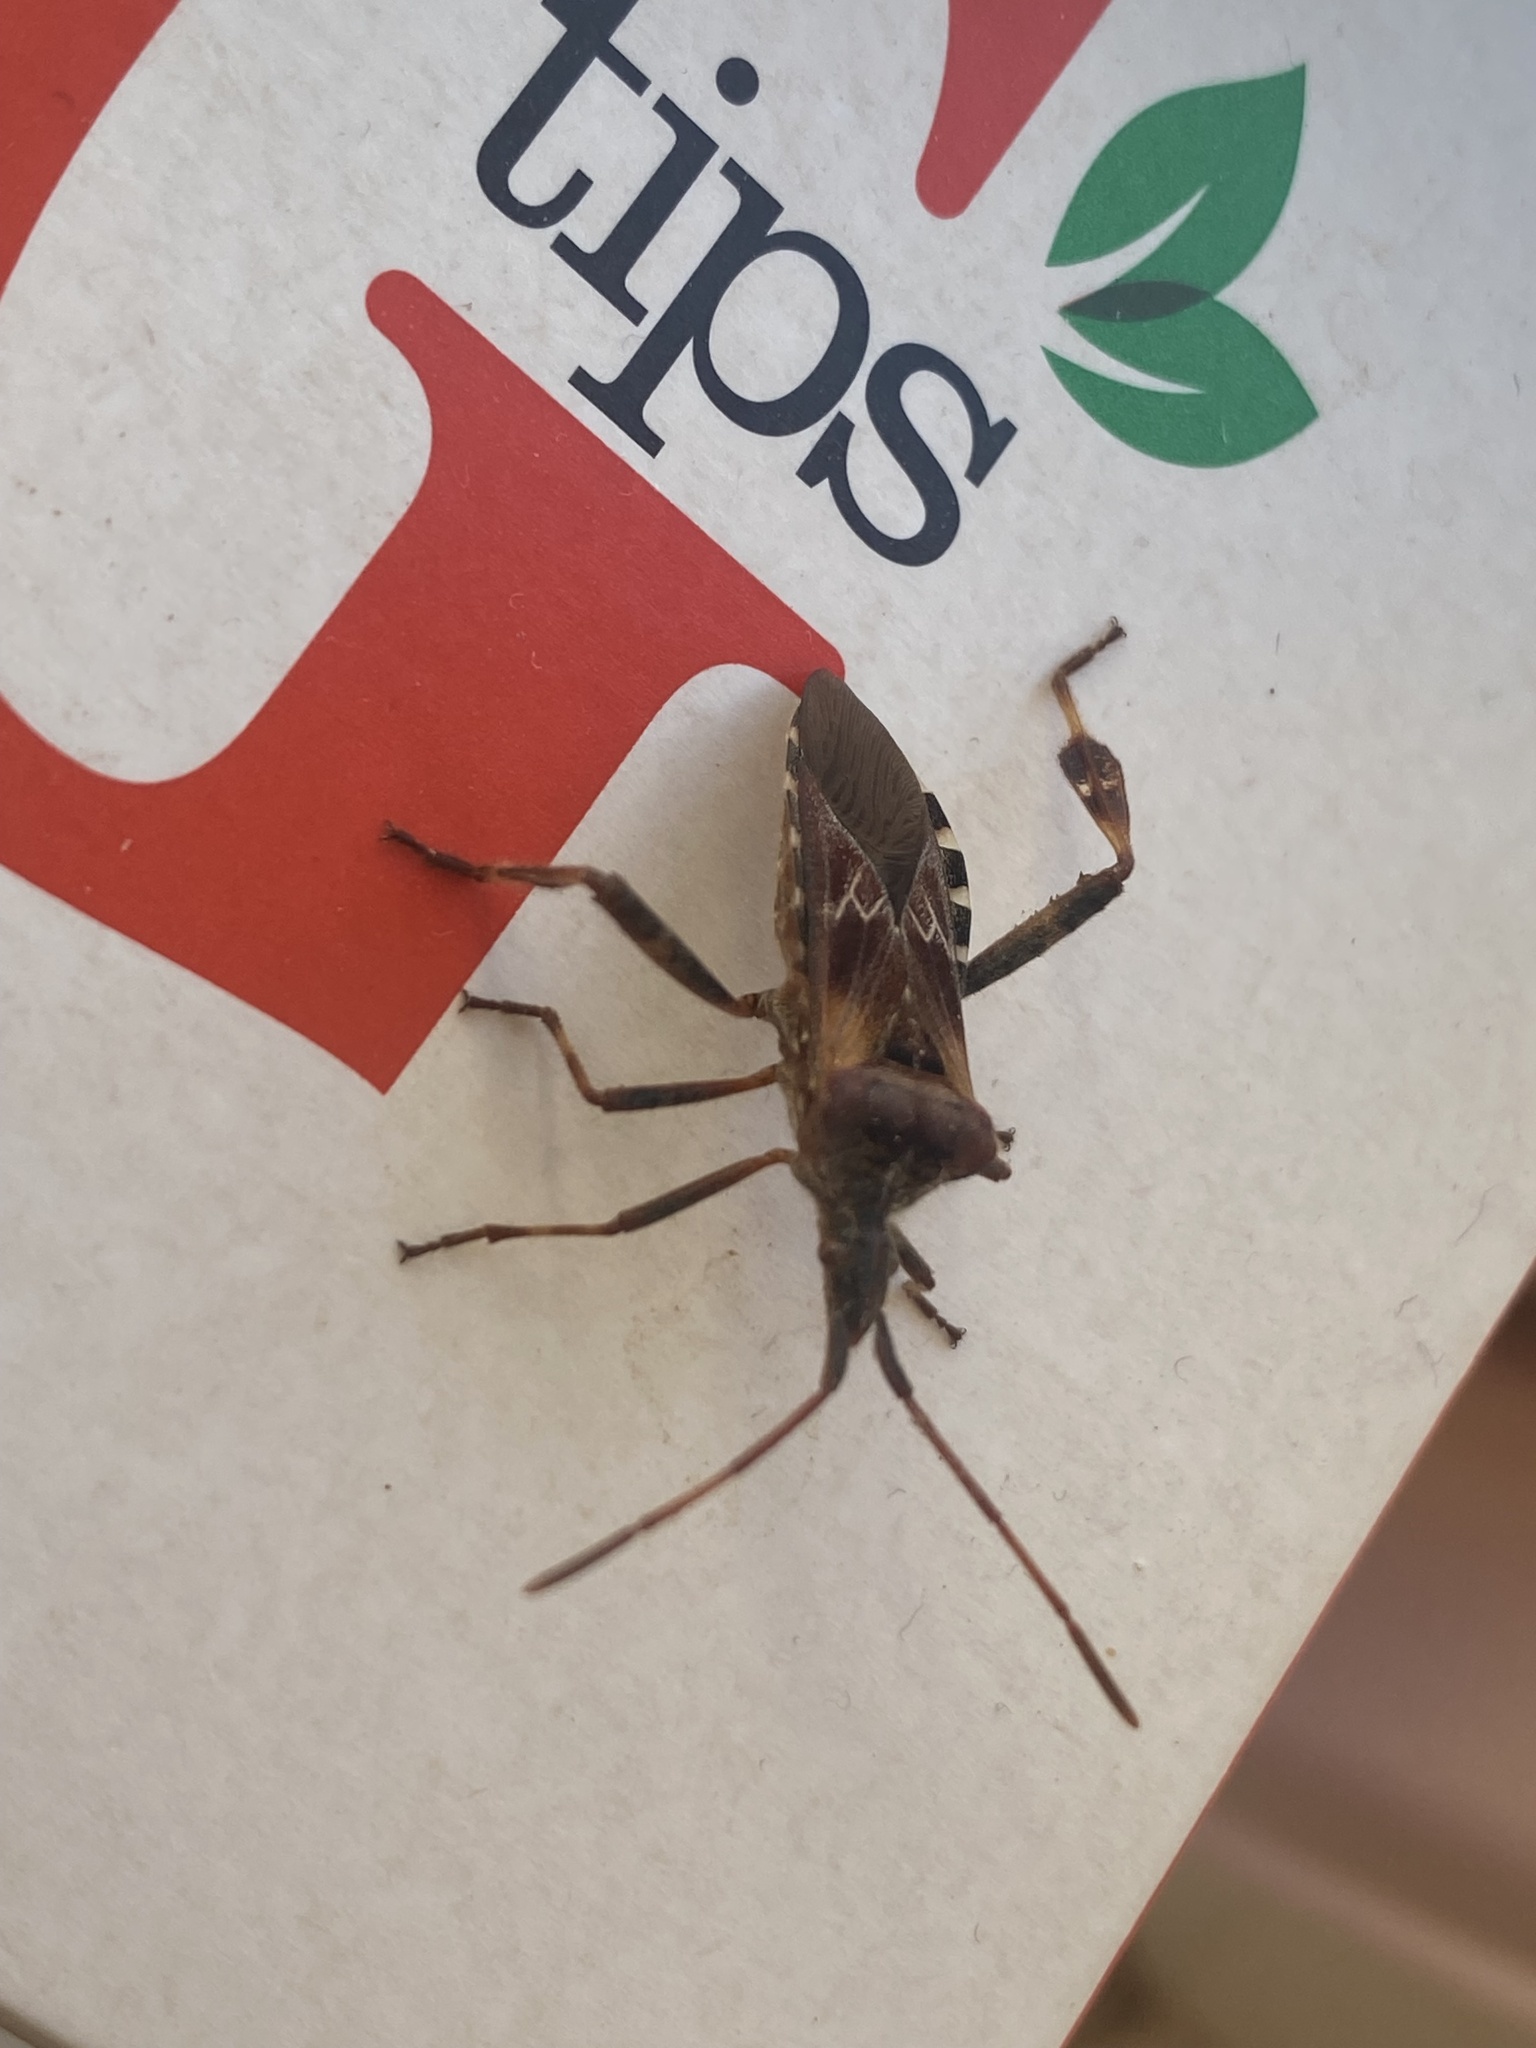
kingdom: Animalia
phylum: Arthropoda
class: Insecta
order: Hemiptera
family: Coreidae
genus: Leptoglossus
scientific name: Leptoglossus occidentalis
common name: Western conifer-seed bug
